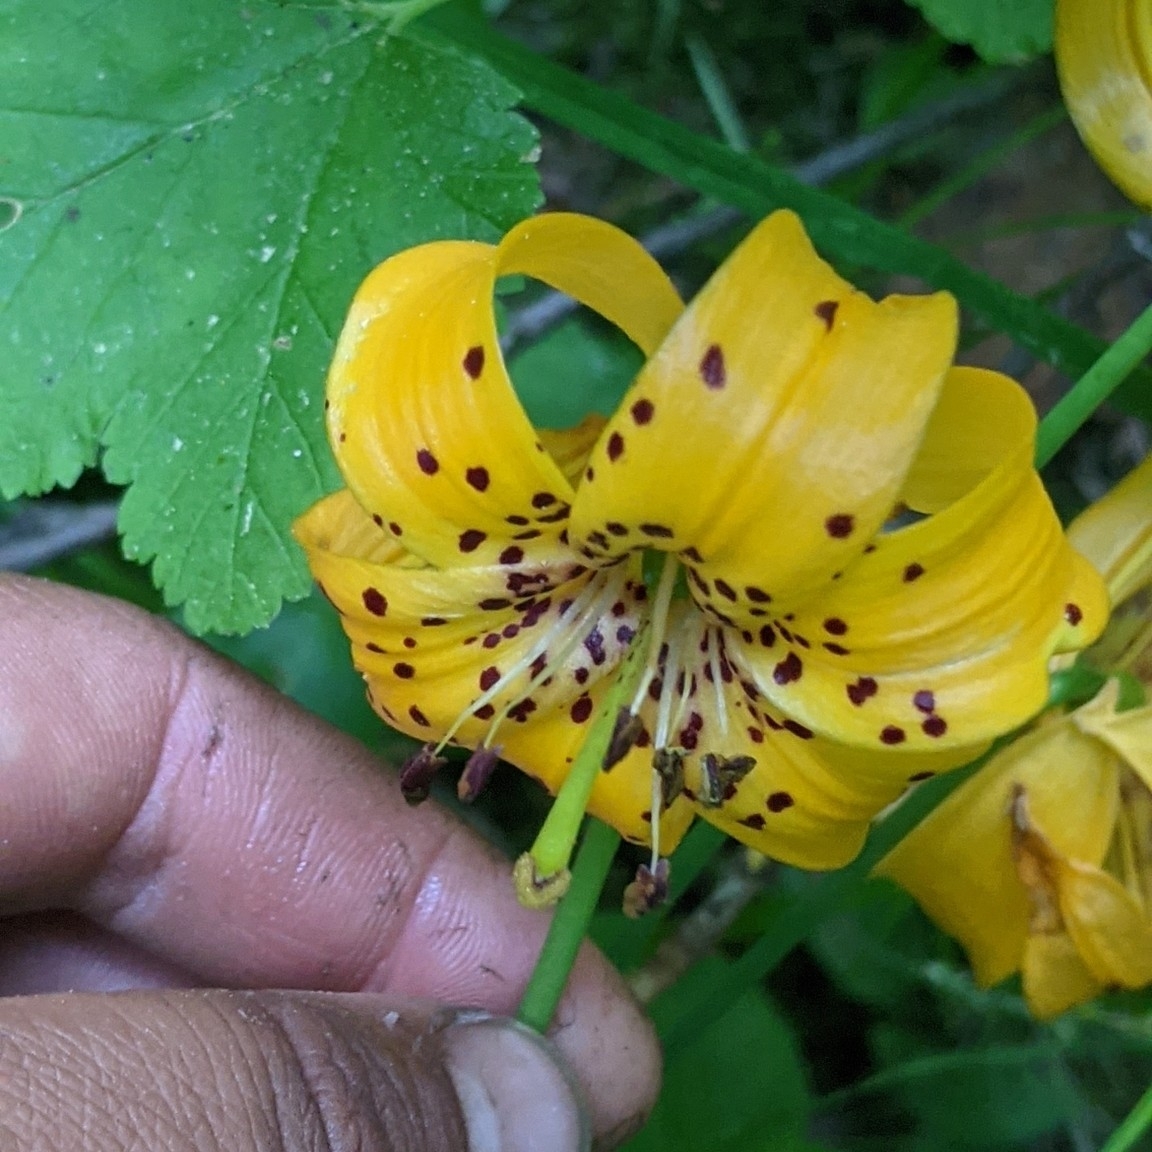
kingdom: Plantae
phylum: Tracheophyta
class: Liliopsida
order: Liliales
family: Liliaceae
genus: Lilium
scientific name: Lilium kelleyanum
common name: Kelley's lily
